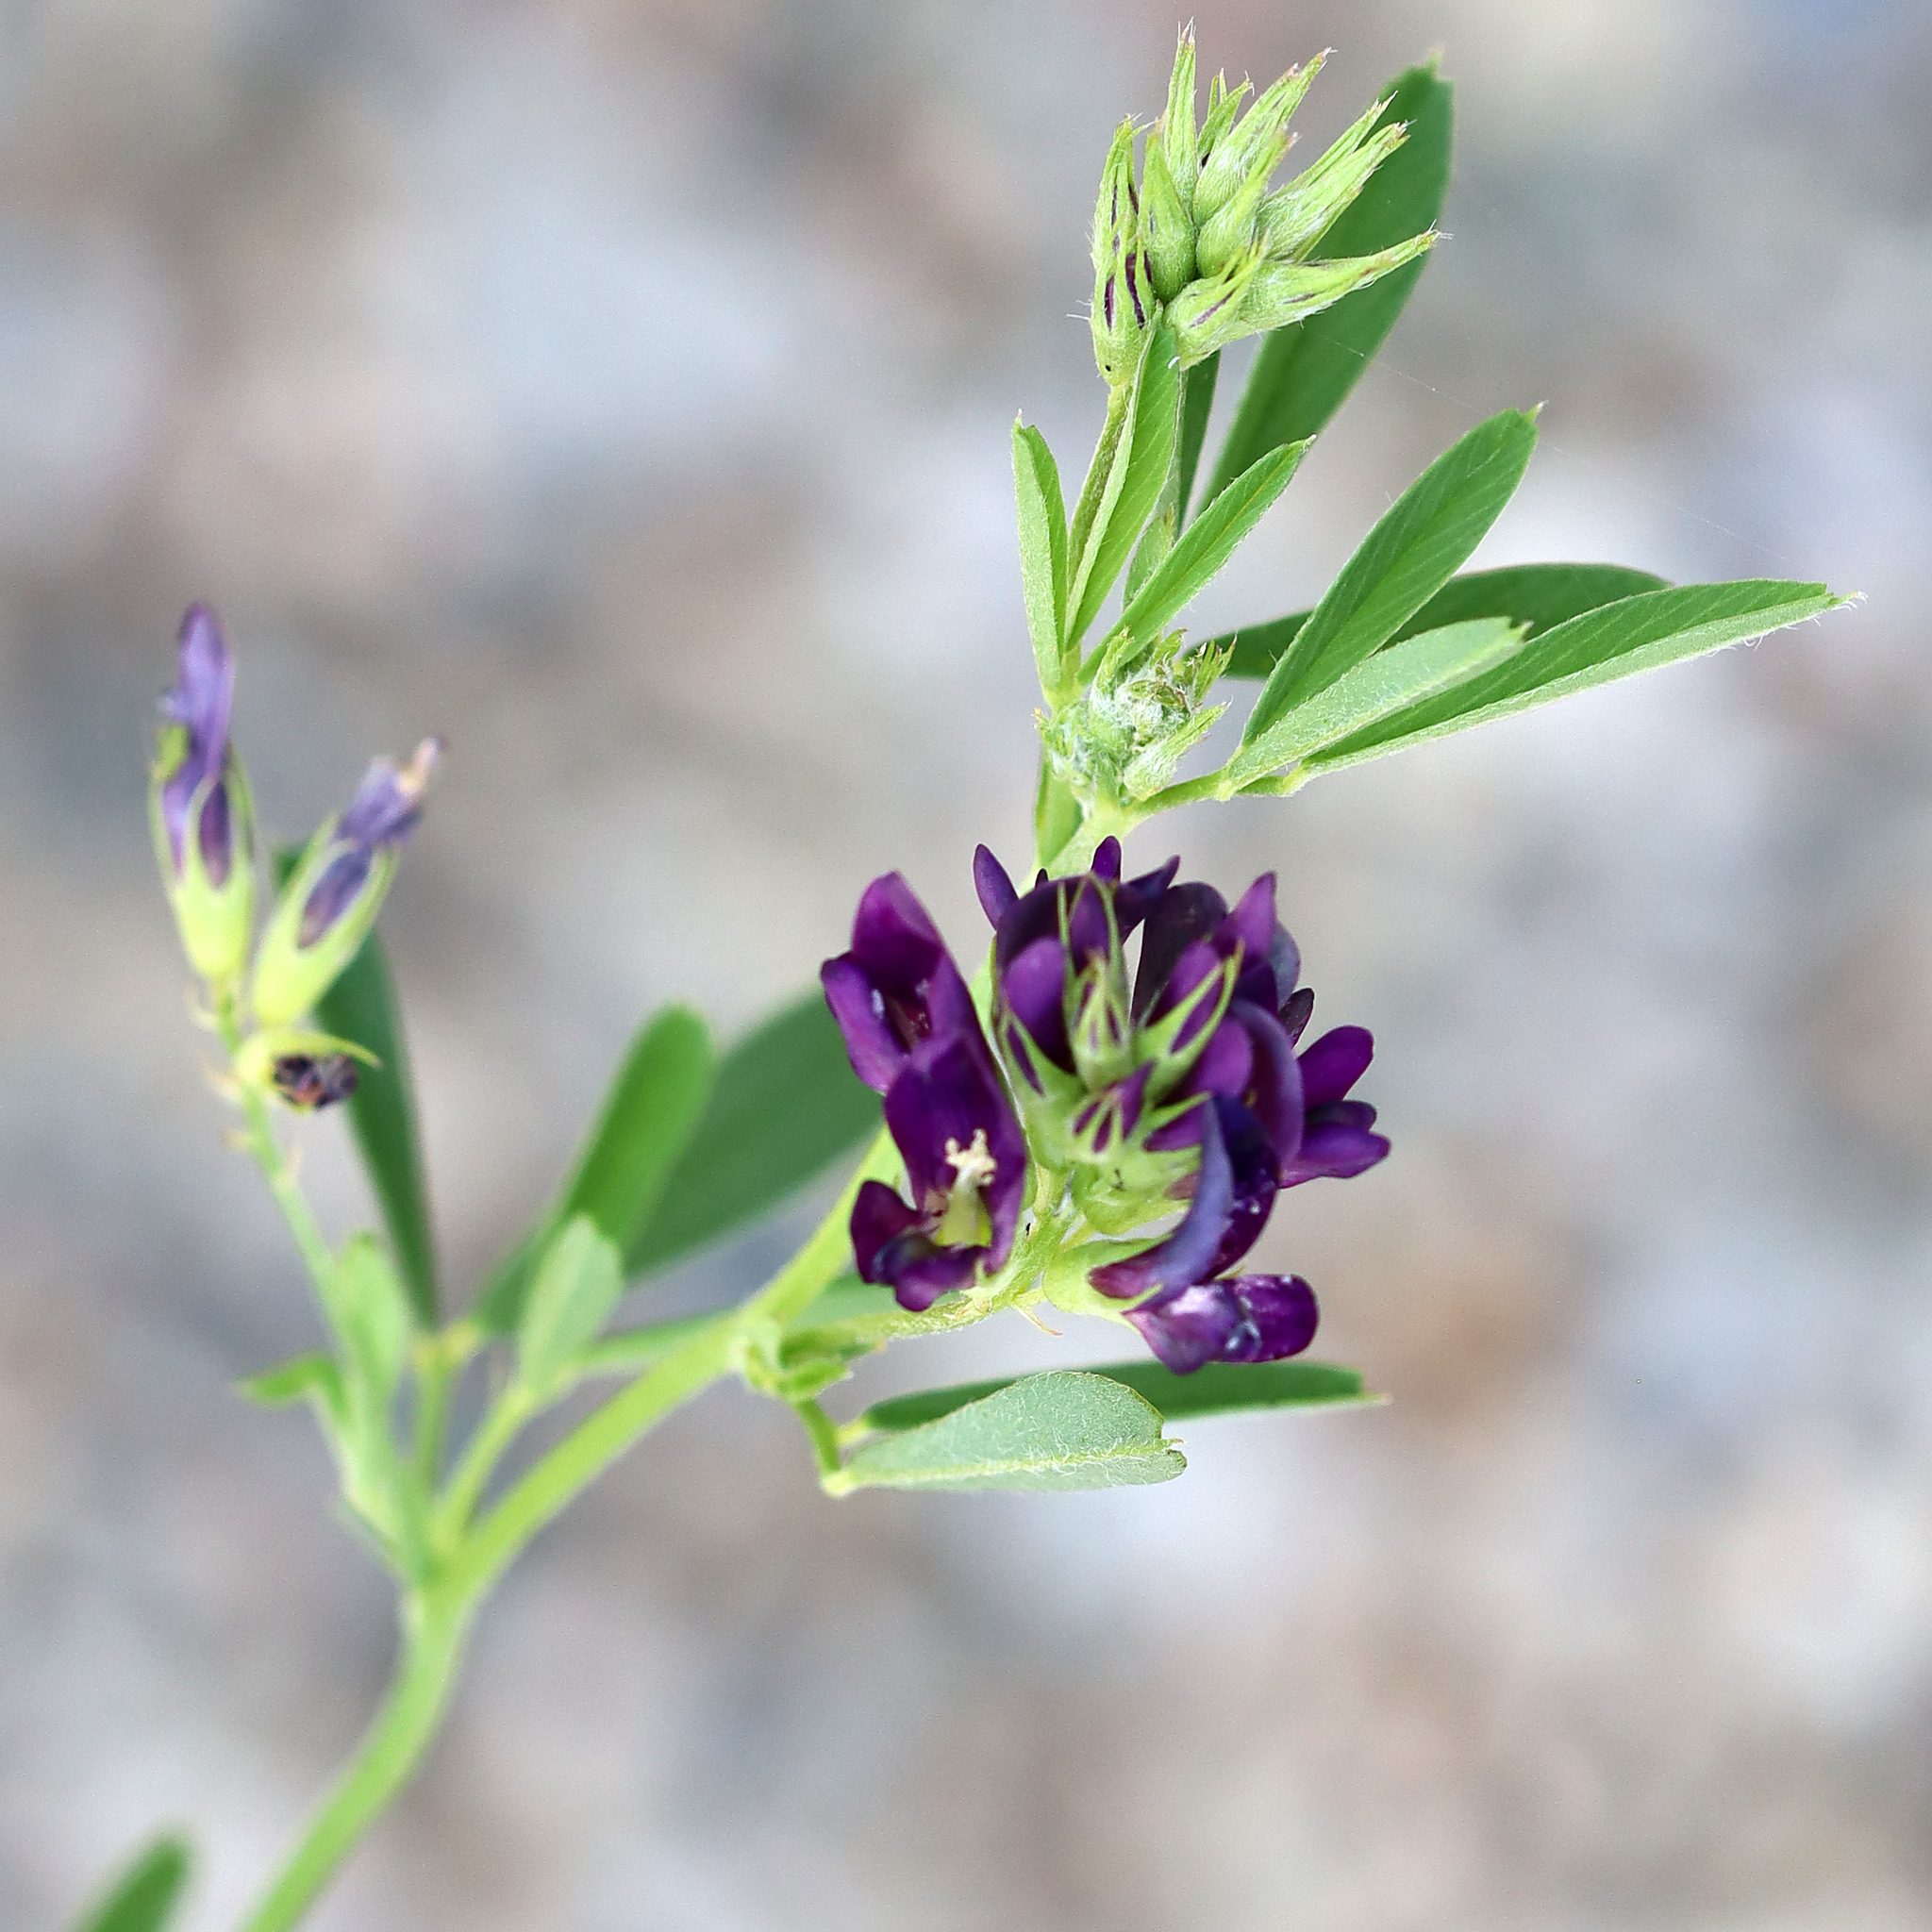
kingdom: Plantae
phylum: Tracheophyta
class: Magnoliopsida
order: Fabales
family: Fabaceae
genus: Medicago
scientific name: Medicago sativa
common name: Alfalfa
